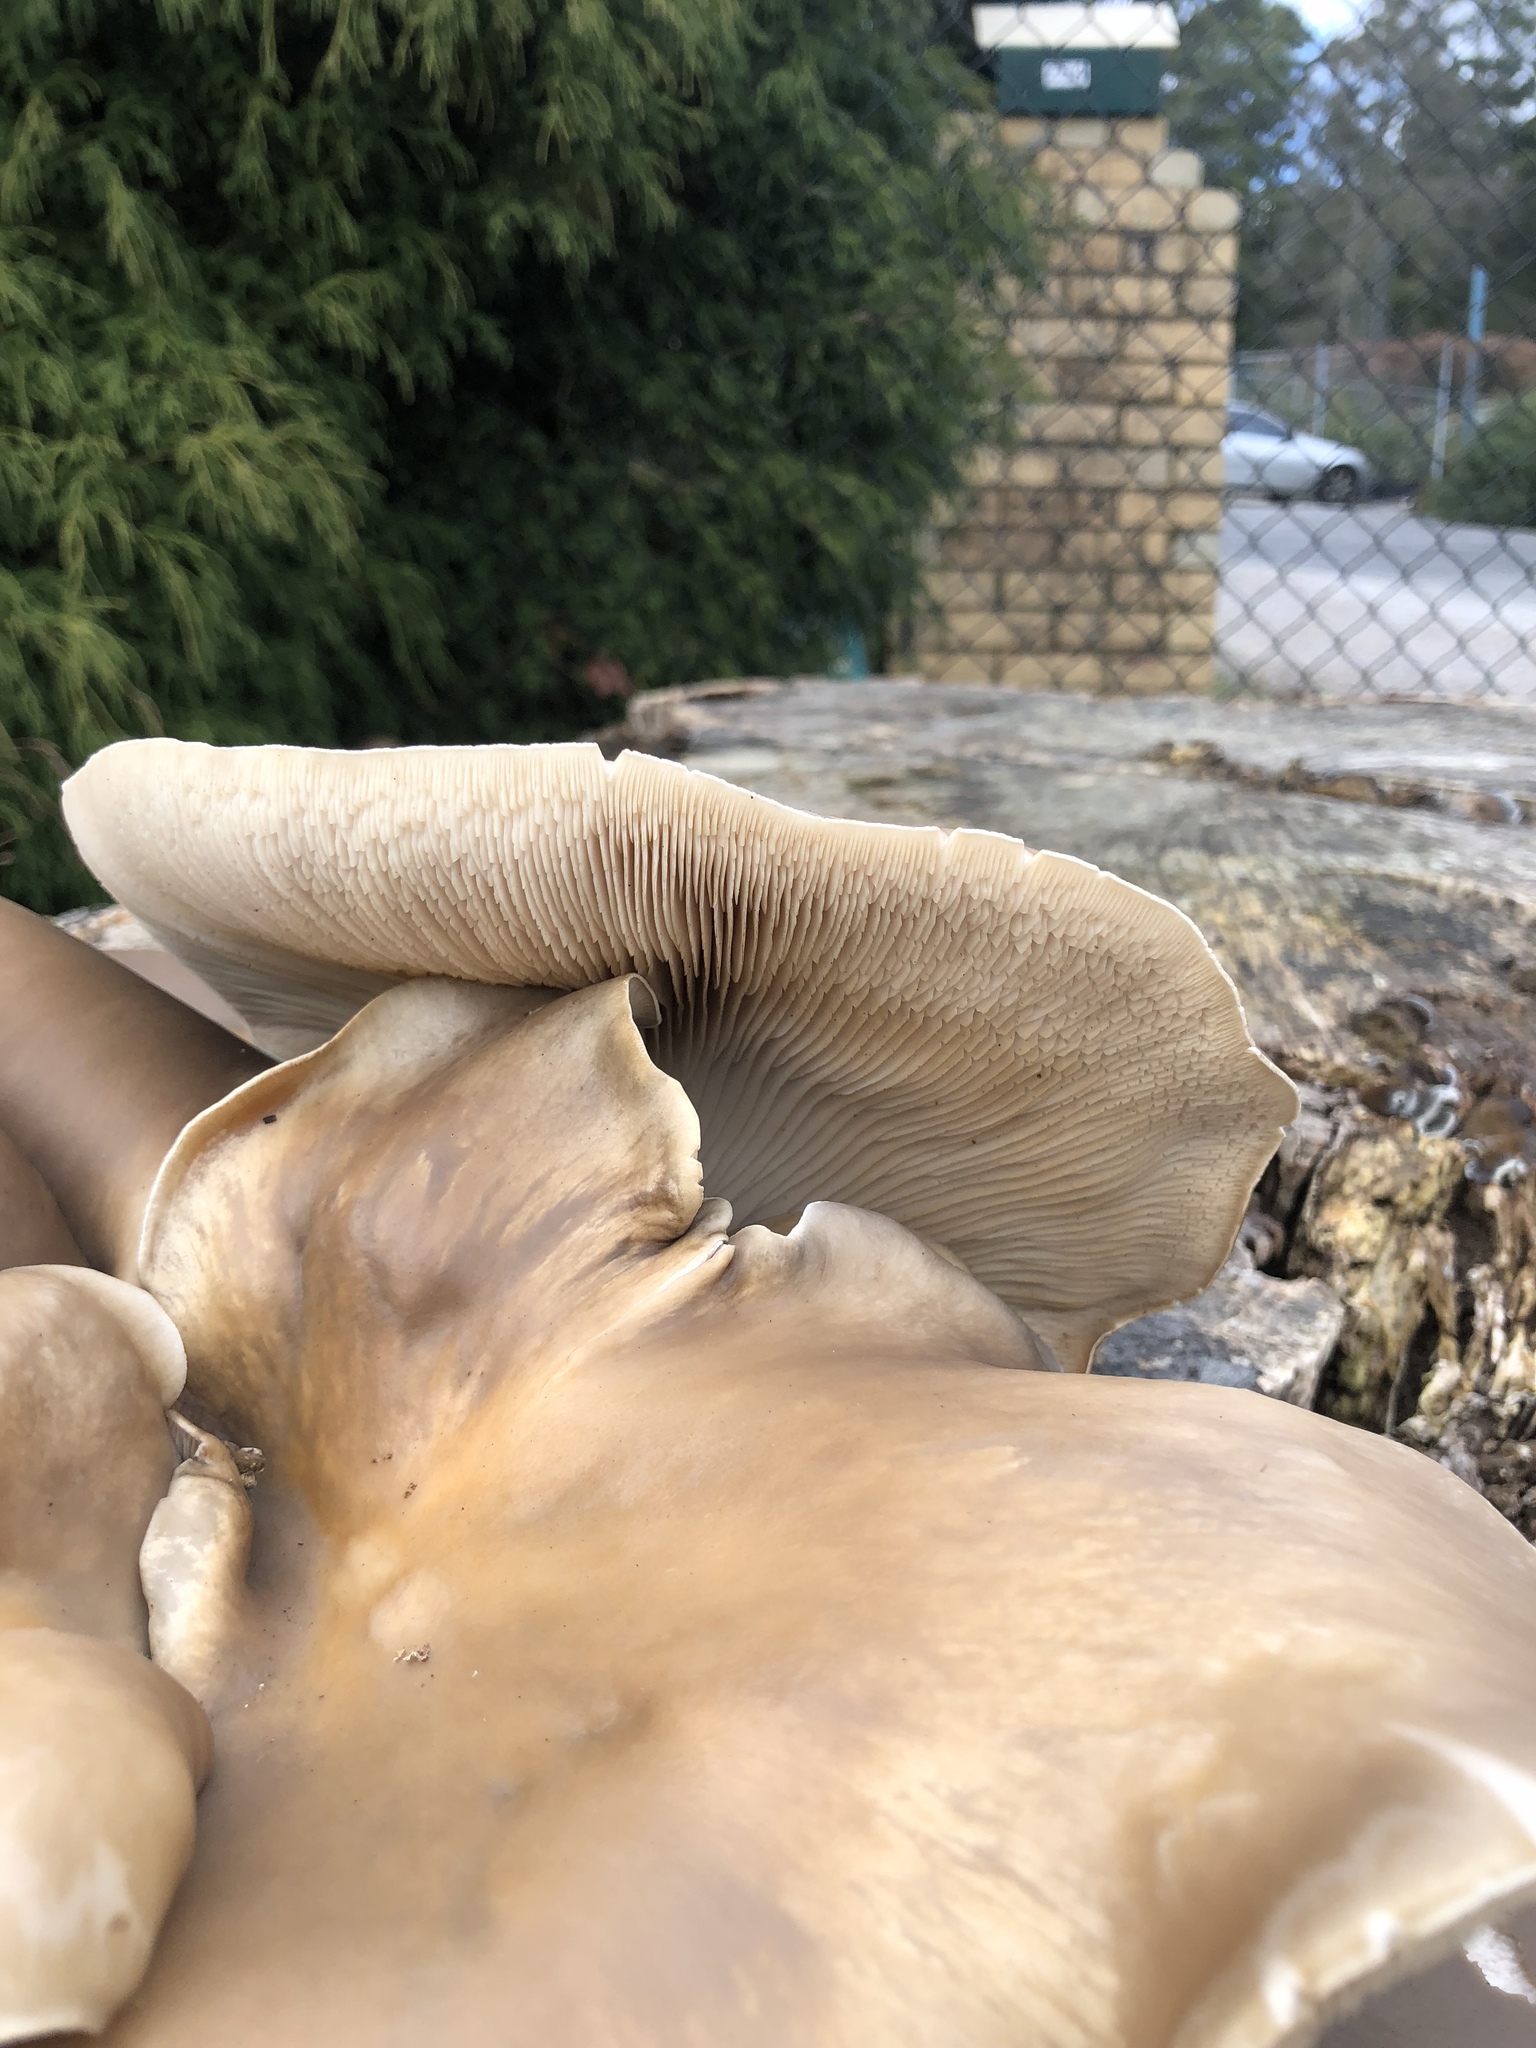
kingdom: Fungi
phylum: Basidiomycota
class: Agaricomycetes
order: Agaricales
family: Omphalotaceae
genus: Omphalotus
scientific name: Omphalotus nidiformis
